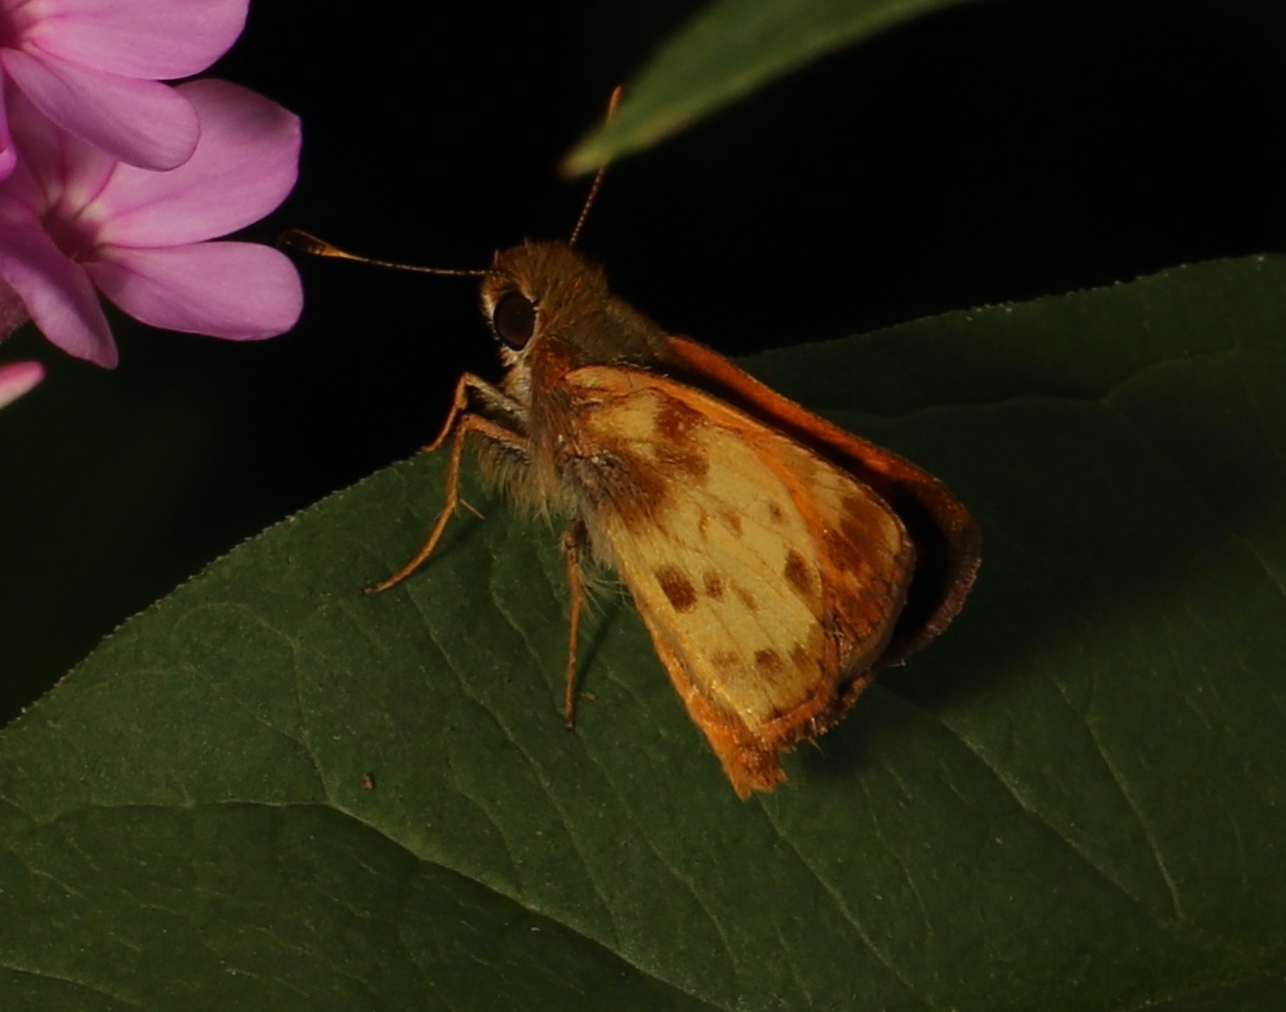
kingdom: Animalia
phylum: Arthropoda
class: Insecta
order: Lepidoptera
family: Hesperiidae
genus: Lon
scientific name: Lon zabulon
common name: Zabulon skipper
